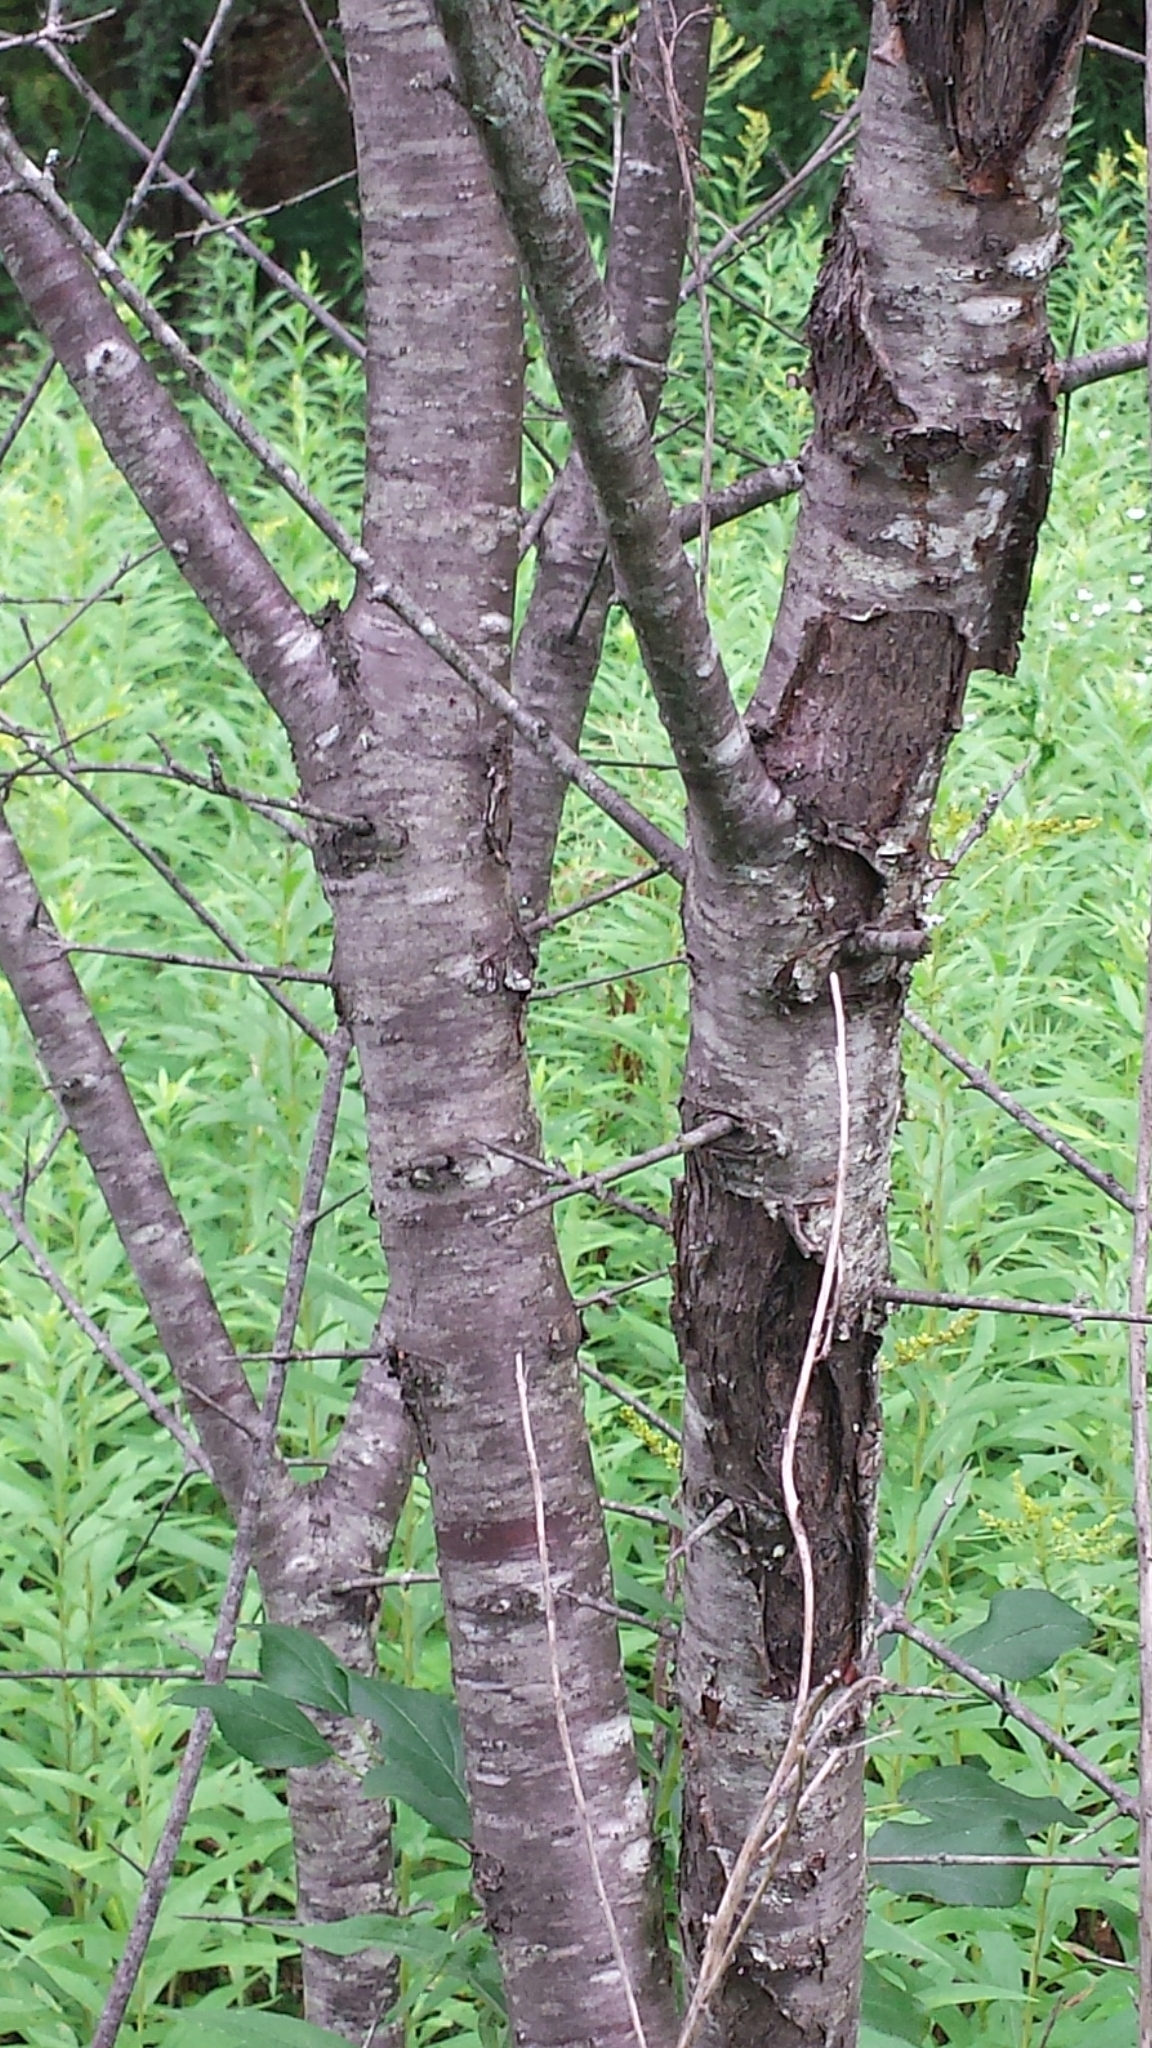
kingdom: Plantae
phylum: Tracheophyta
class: Magnoliopsida
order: Rosales
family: Rhamnaceae
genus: Rhamnus
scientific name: Rhamnus cathartica
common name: Common buckthorn
